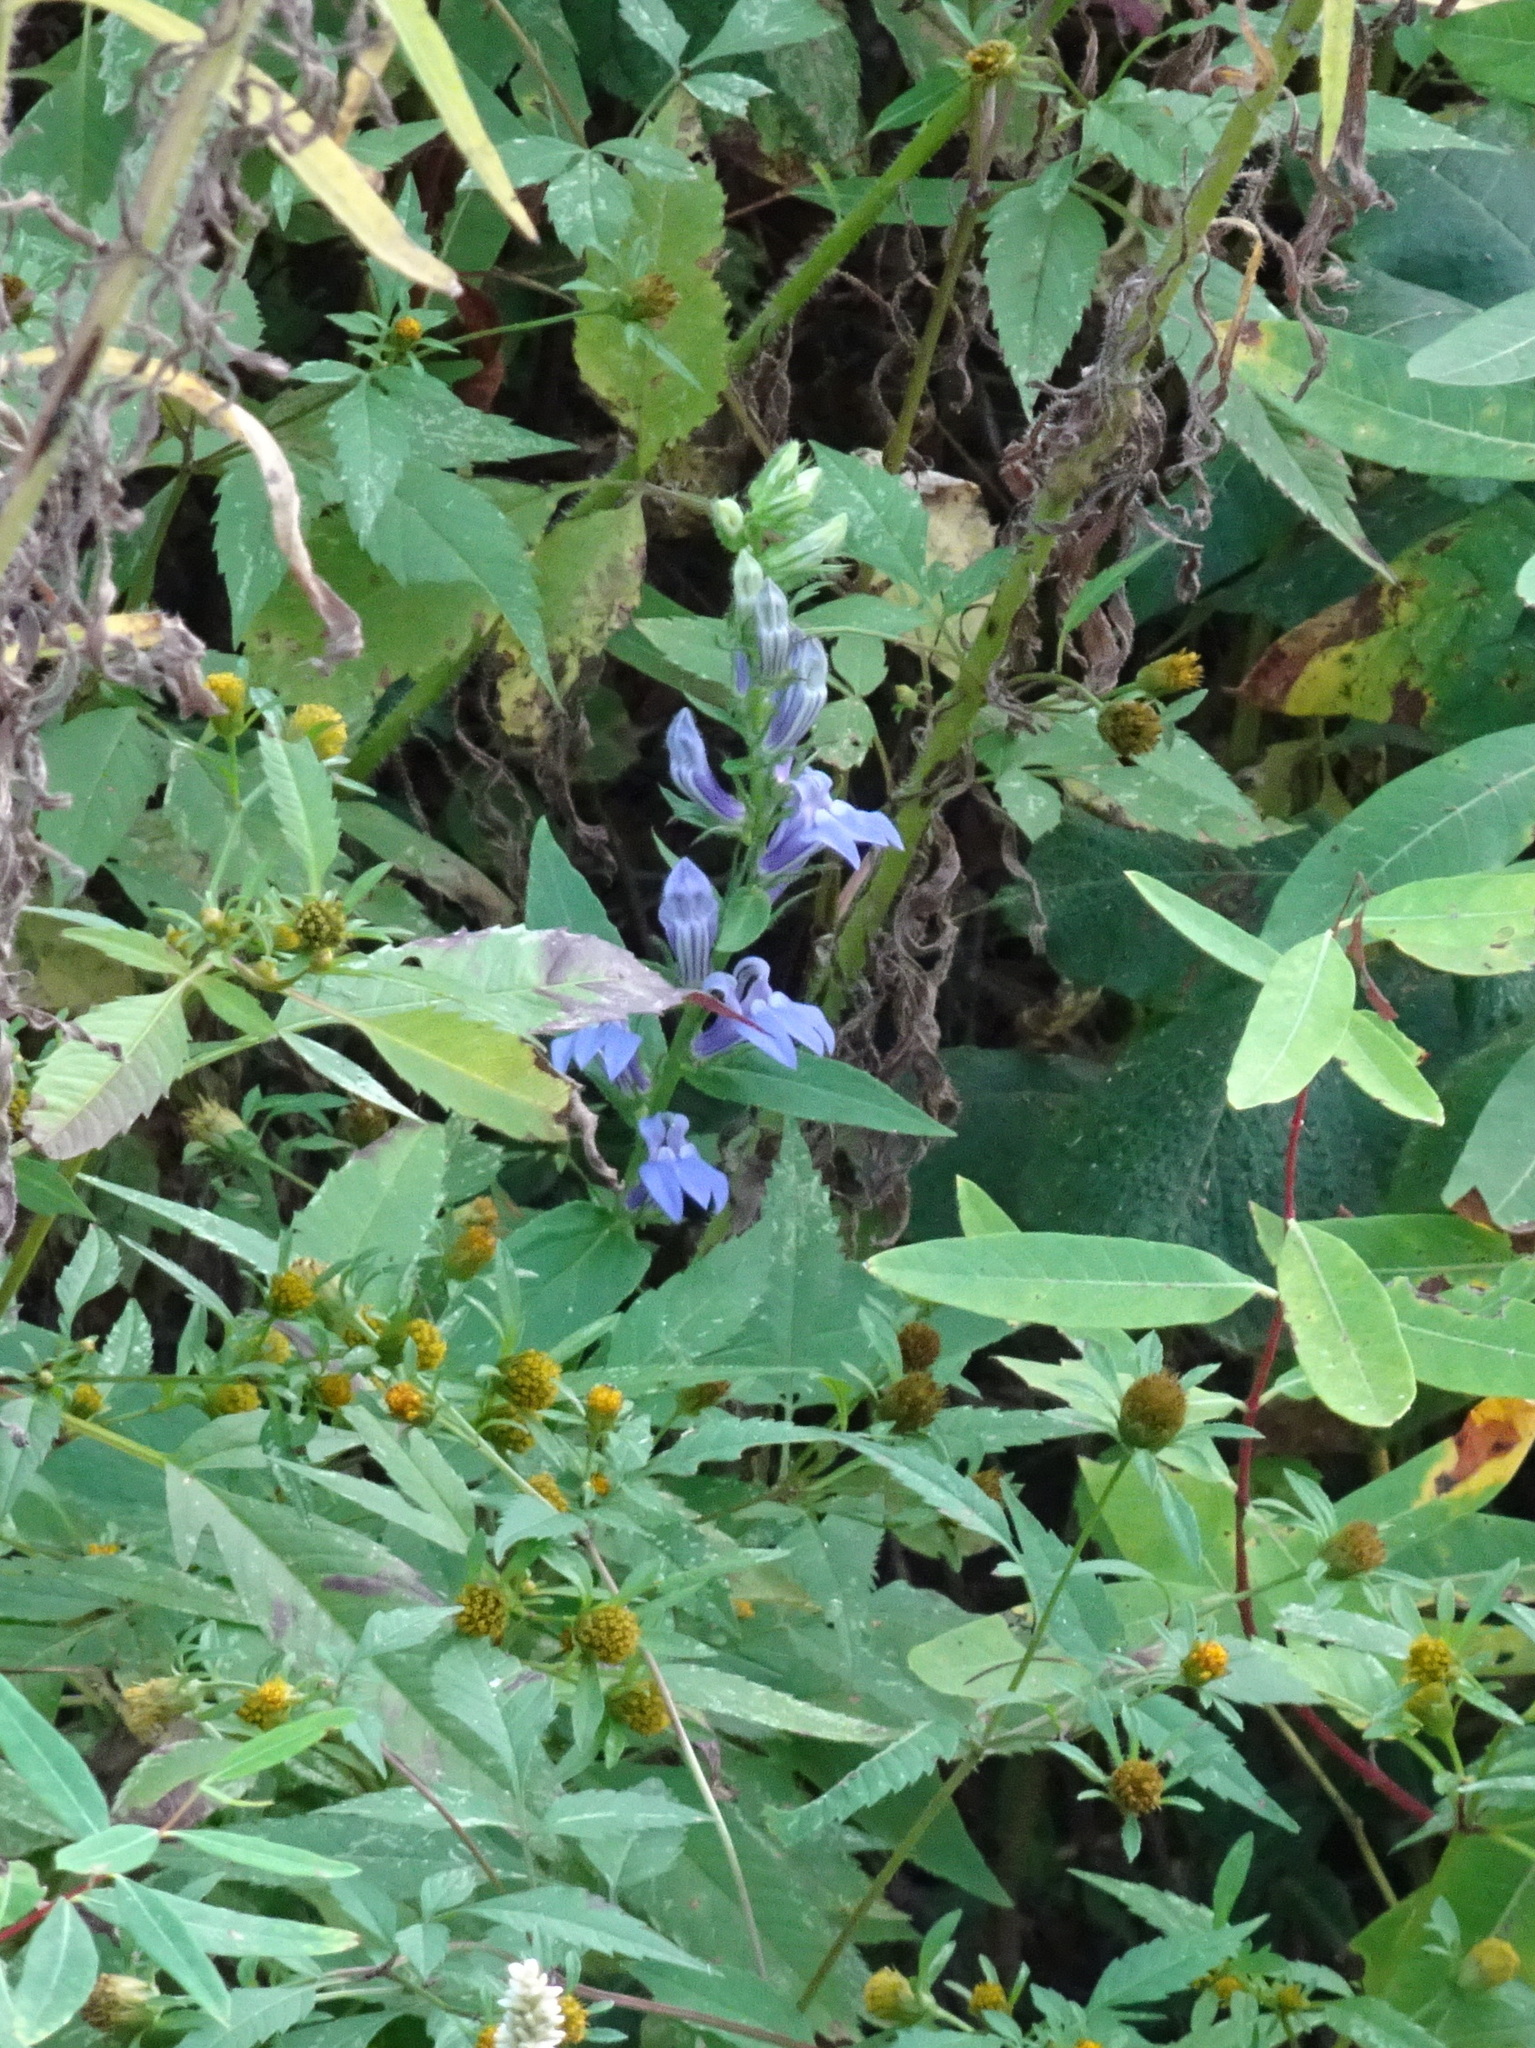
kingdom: Plantae
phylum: Tracheophyta
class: Magnoliopsida
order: Asterales
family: Campanulaceae
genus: Lobelia
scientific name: Lobelia siphilitica
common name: Great lobelia
